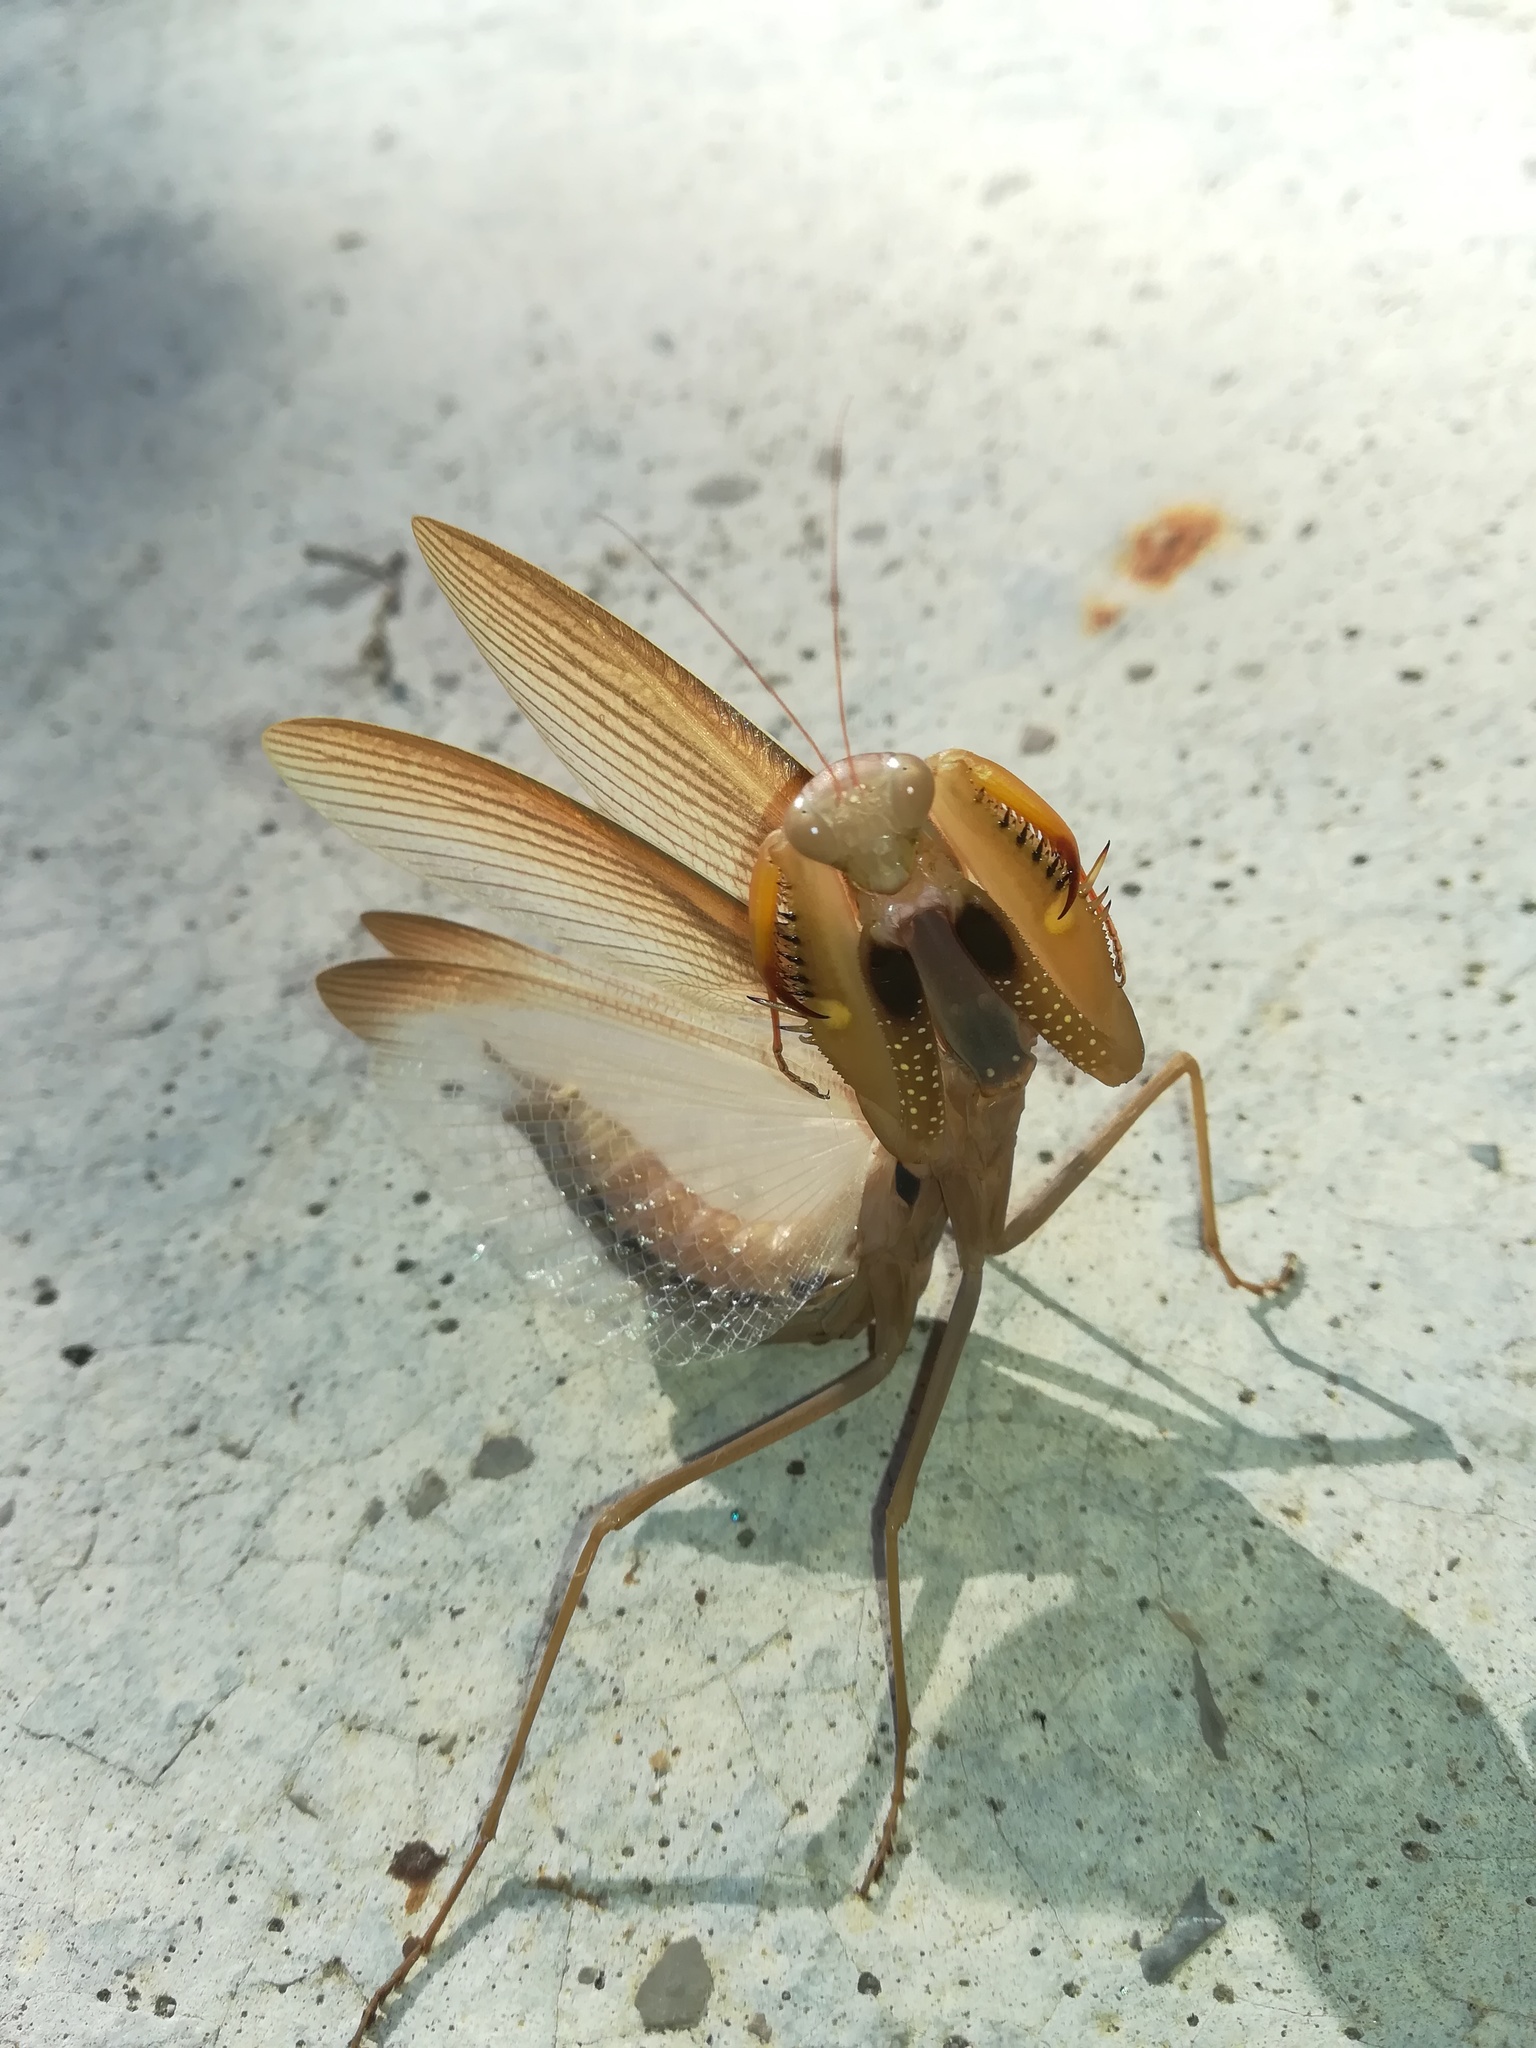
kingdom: Animalia
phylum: Arthropoda
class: Insecta
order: Mantodea
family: Mantidae
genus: Mantis
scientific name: Mantis religiosa
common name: Praying mantis
